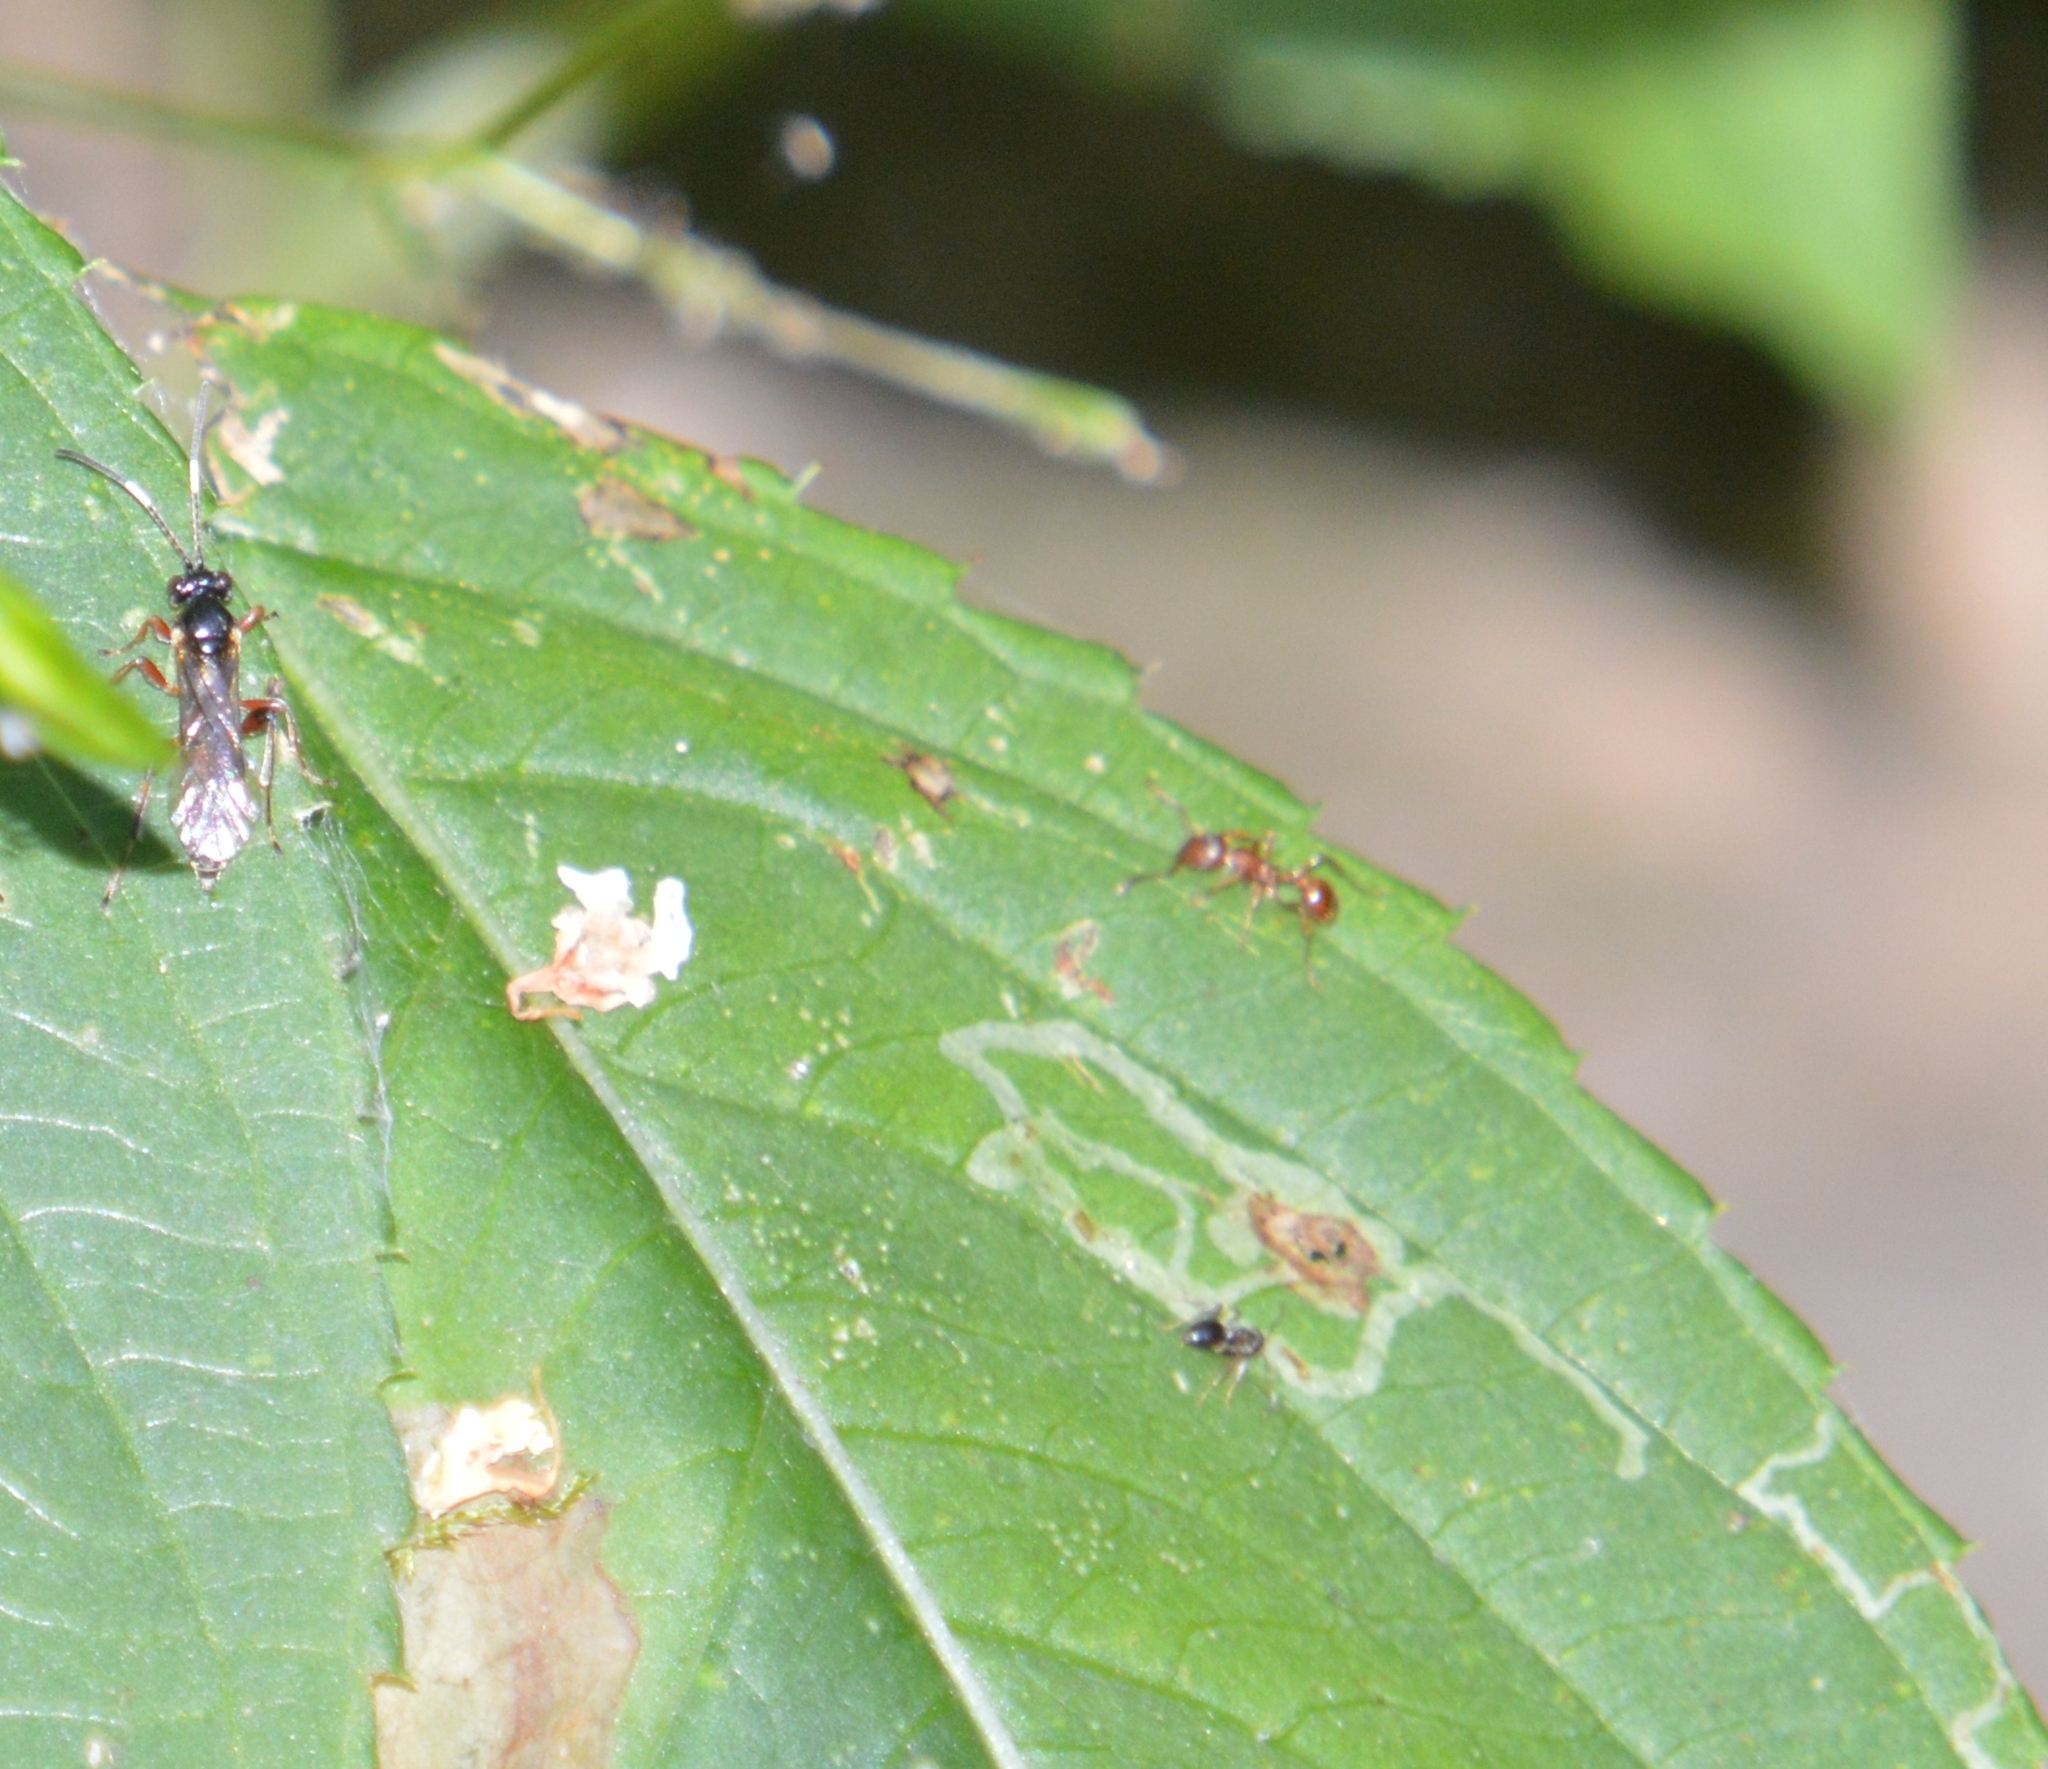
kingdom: Animalia
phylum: Arthropoda
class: Insecta
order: Hymenoptera
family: Formicidae
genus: Myrmica
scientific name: Myrmica
